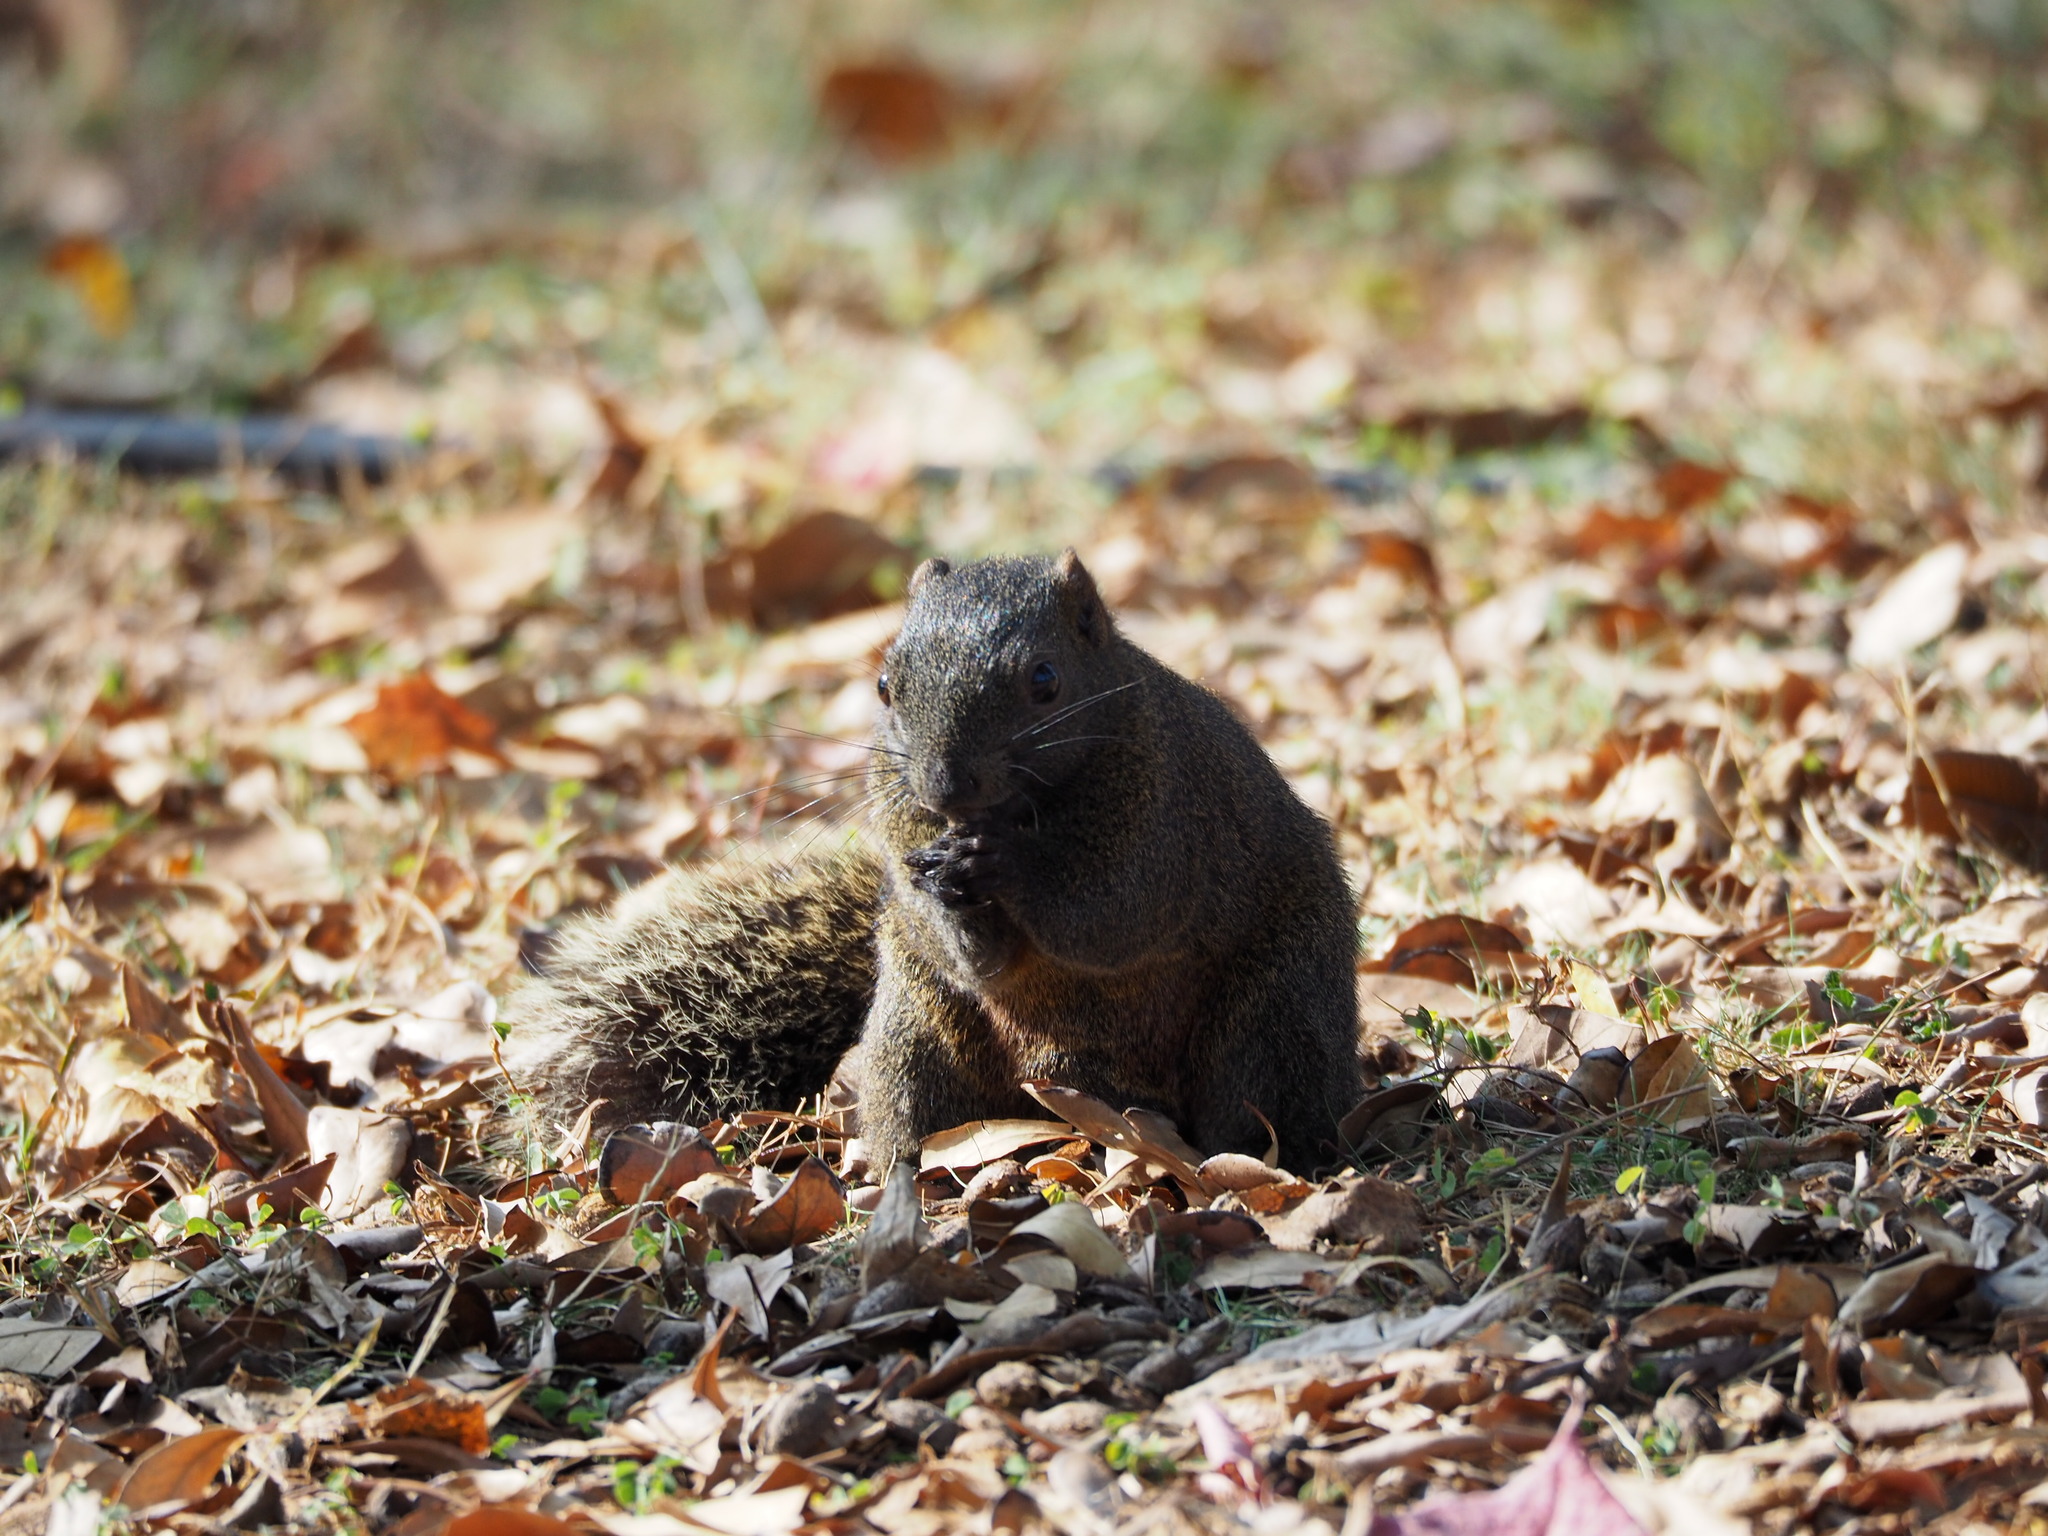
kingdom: Animalia
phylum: Chordata
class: Mammalia
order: Rodentia
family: Sciuridae
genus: Callosciurus
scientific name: Callosciurus erythraeus
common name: Pallas's squirrel
